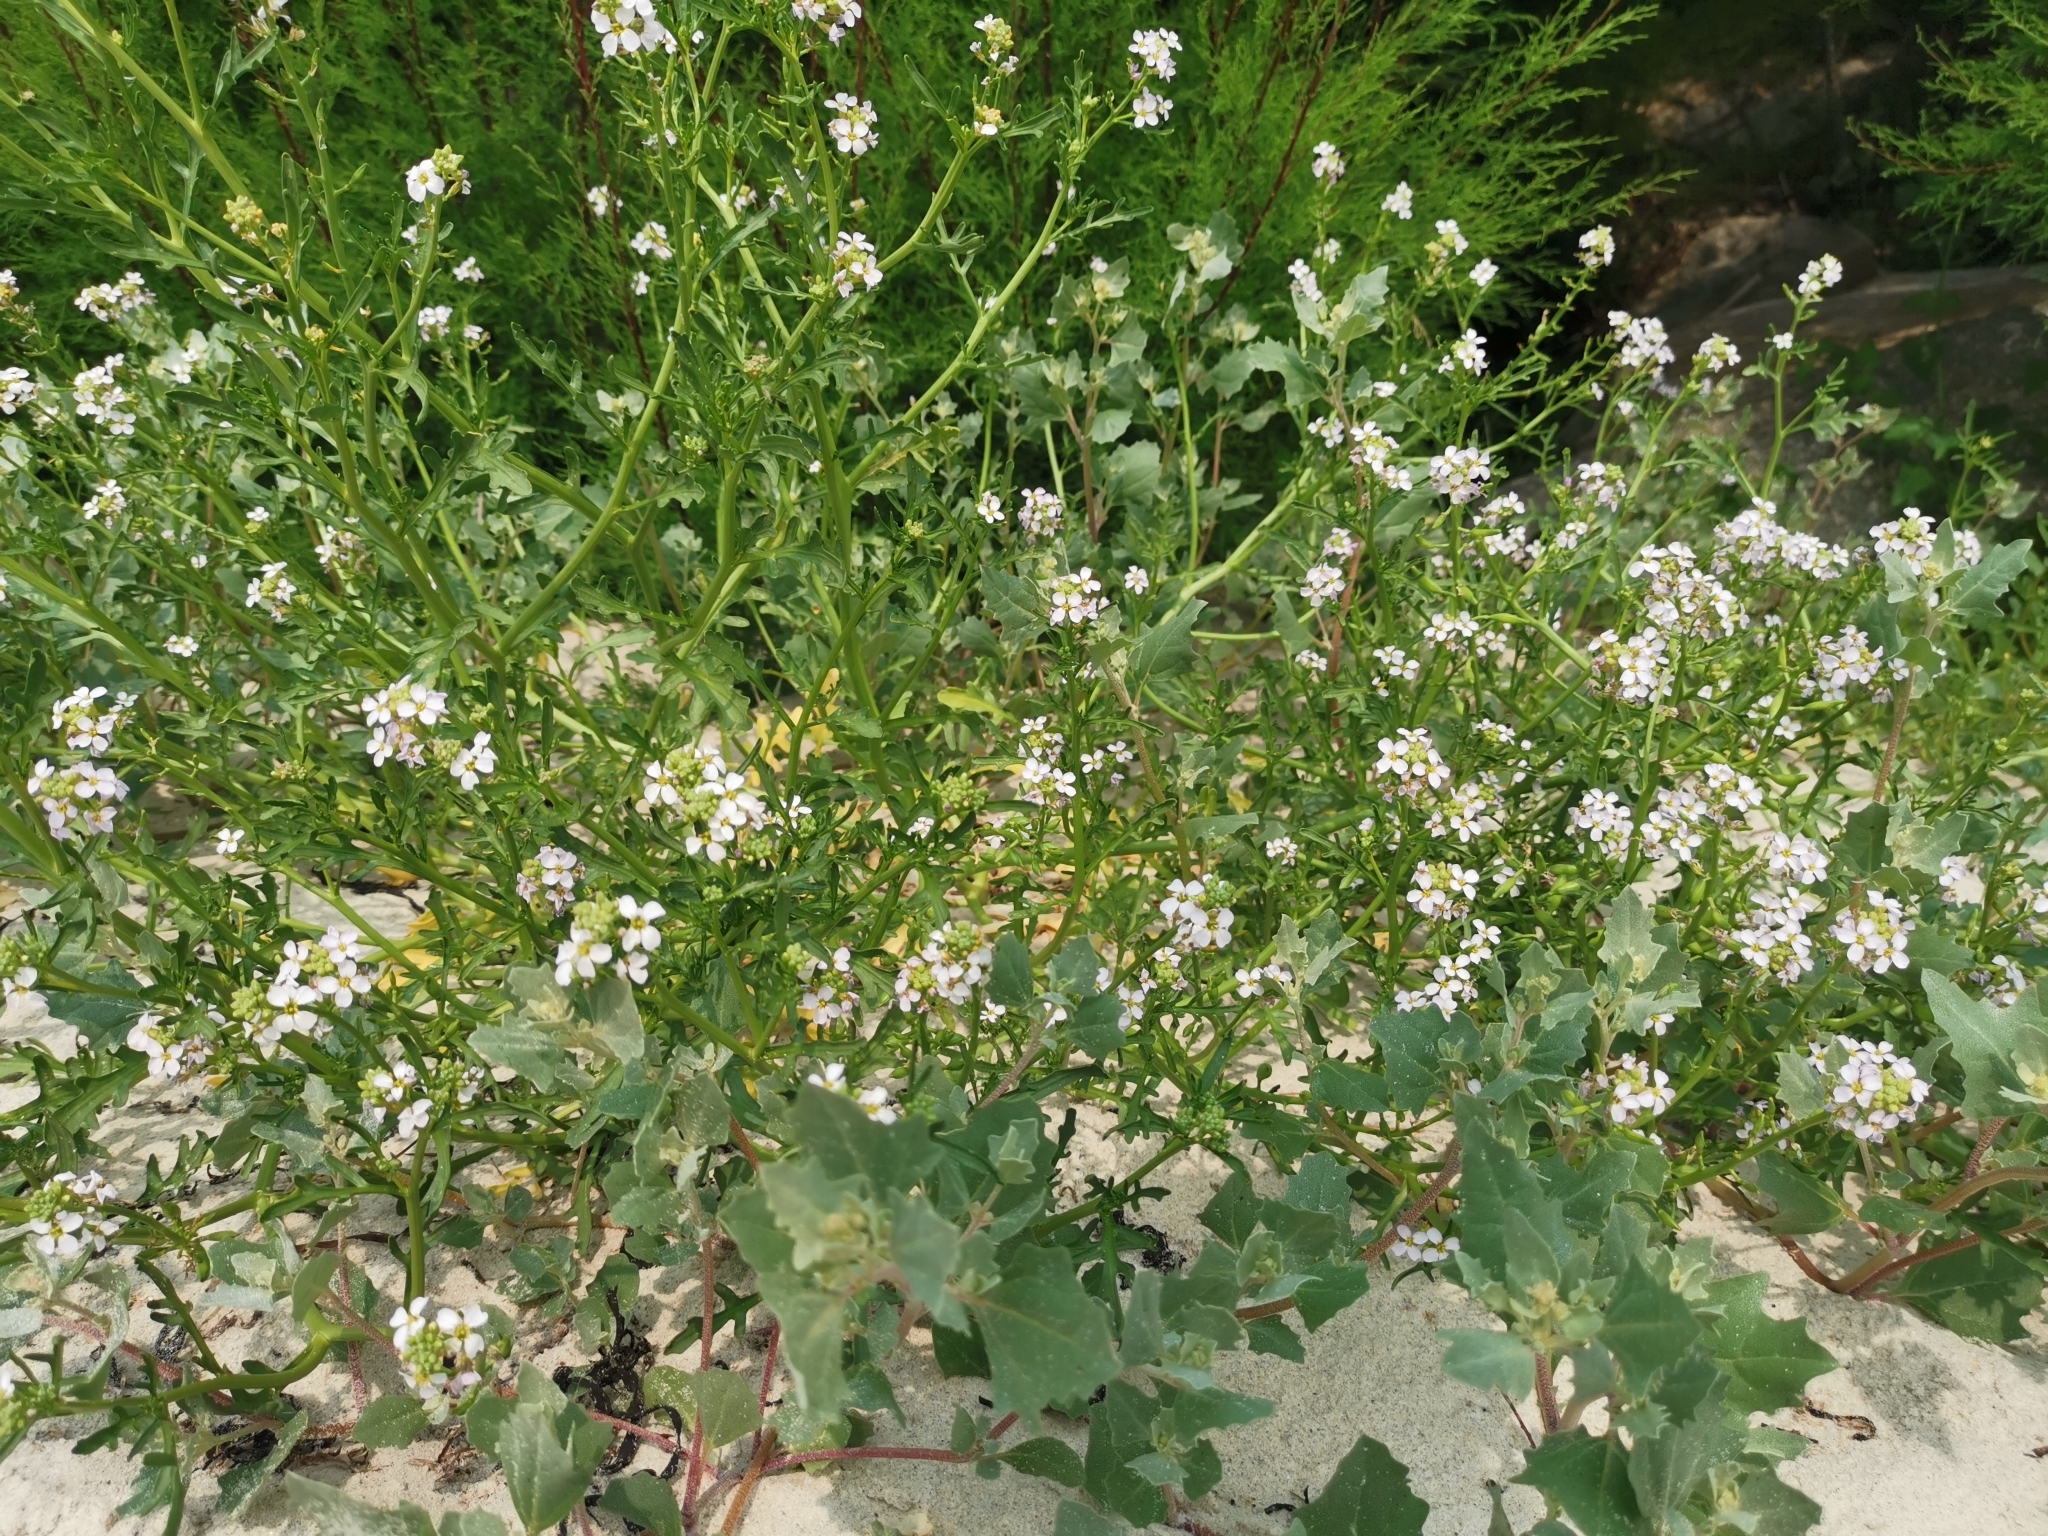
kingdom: Plantae
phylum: Tracheophyta
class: Magnoliopsida
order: Brassicales
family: Brassicaceae
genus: Cakile
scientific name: Cakile maritima
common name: Sea rocket
